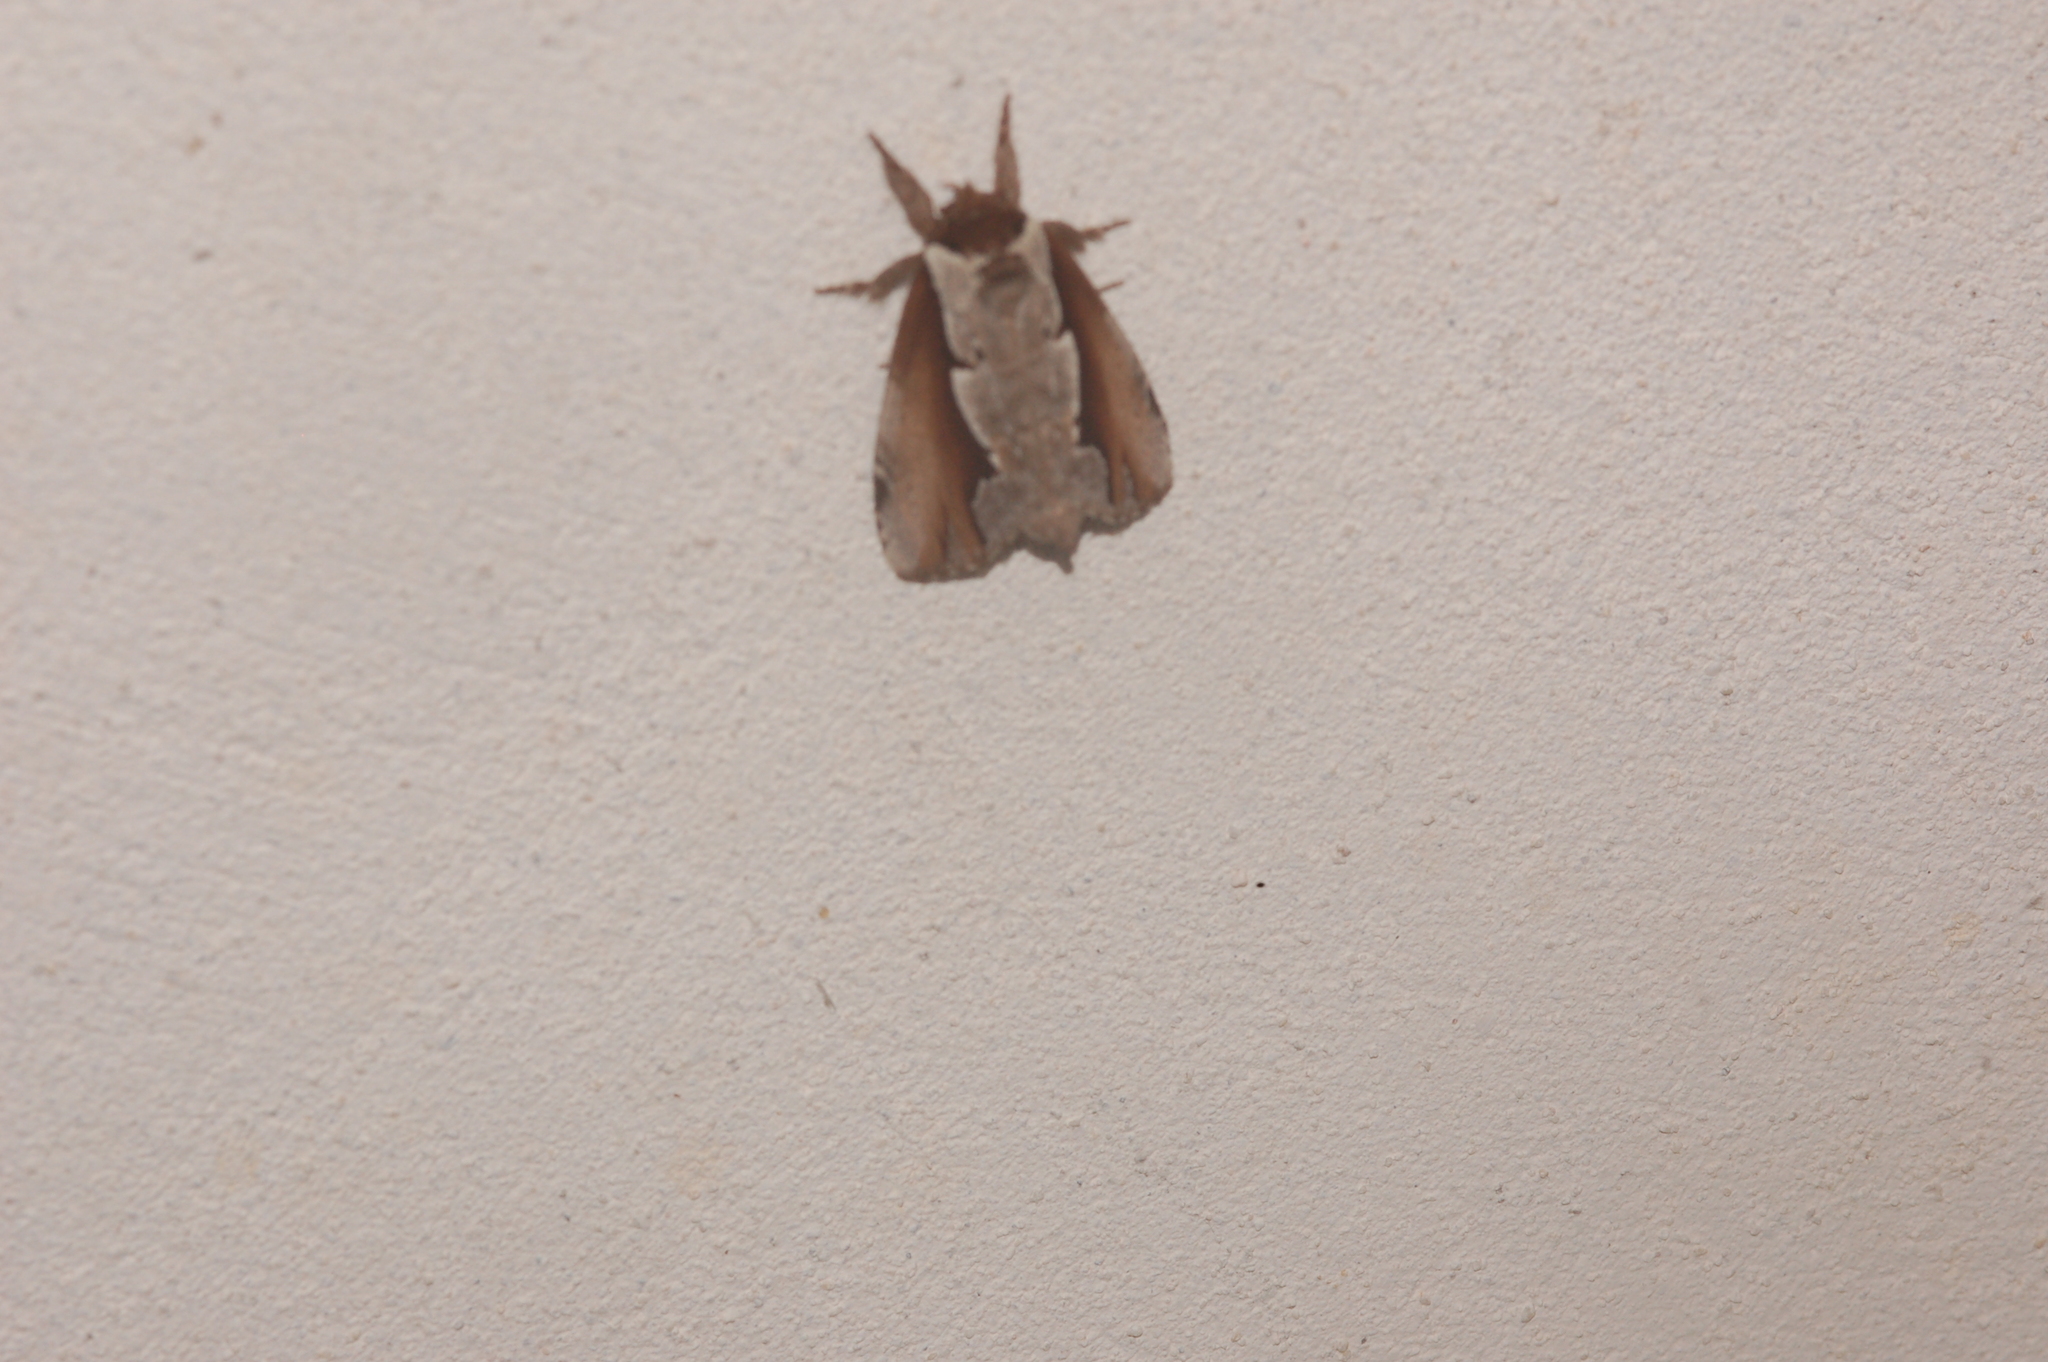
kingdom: Animalia
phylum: Arthropoda
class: Insecta
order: Lepidoptera
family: Notodontidae
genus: Nerice
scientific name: Nerice bidentata
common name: Double-toothed prominent
